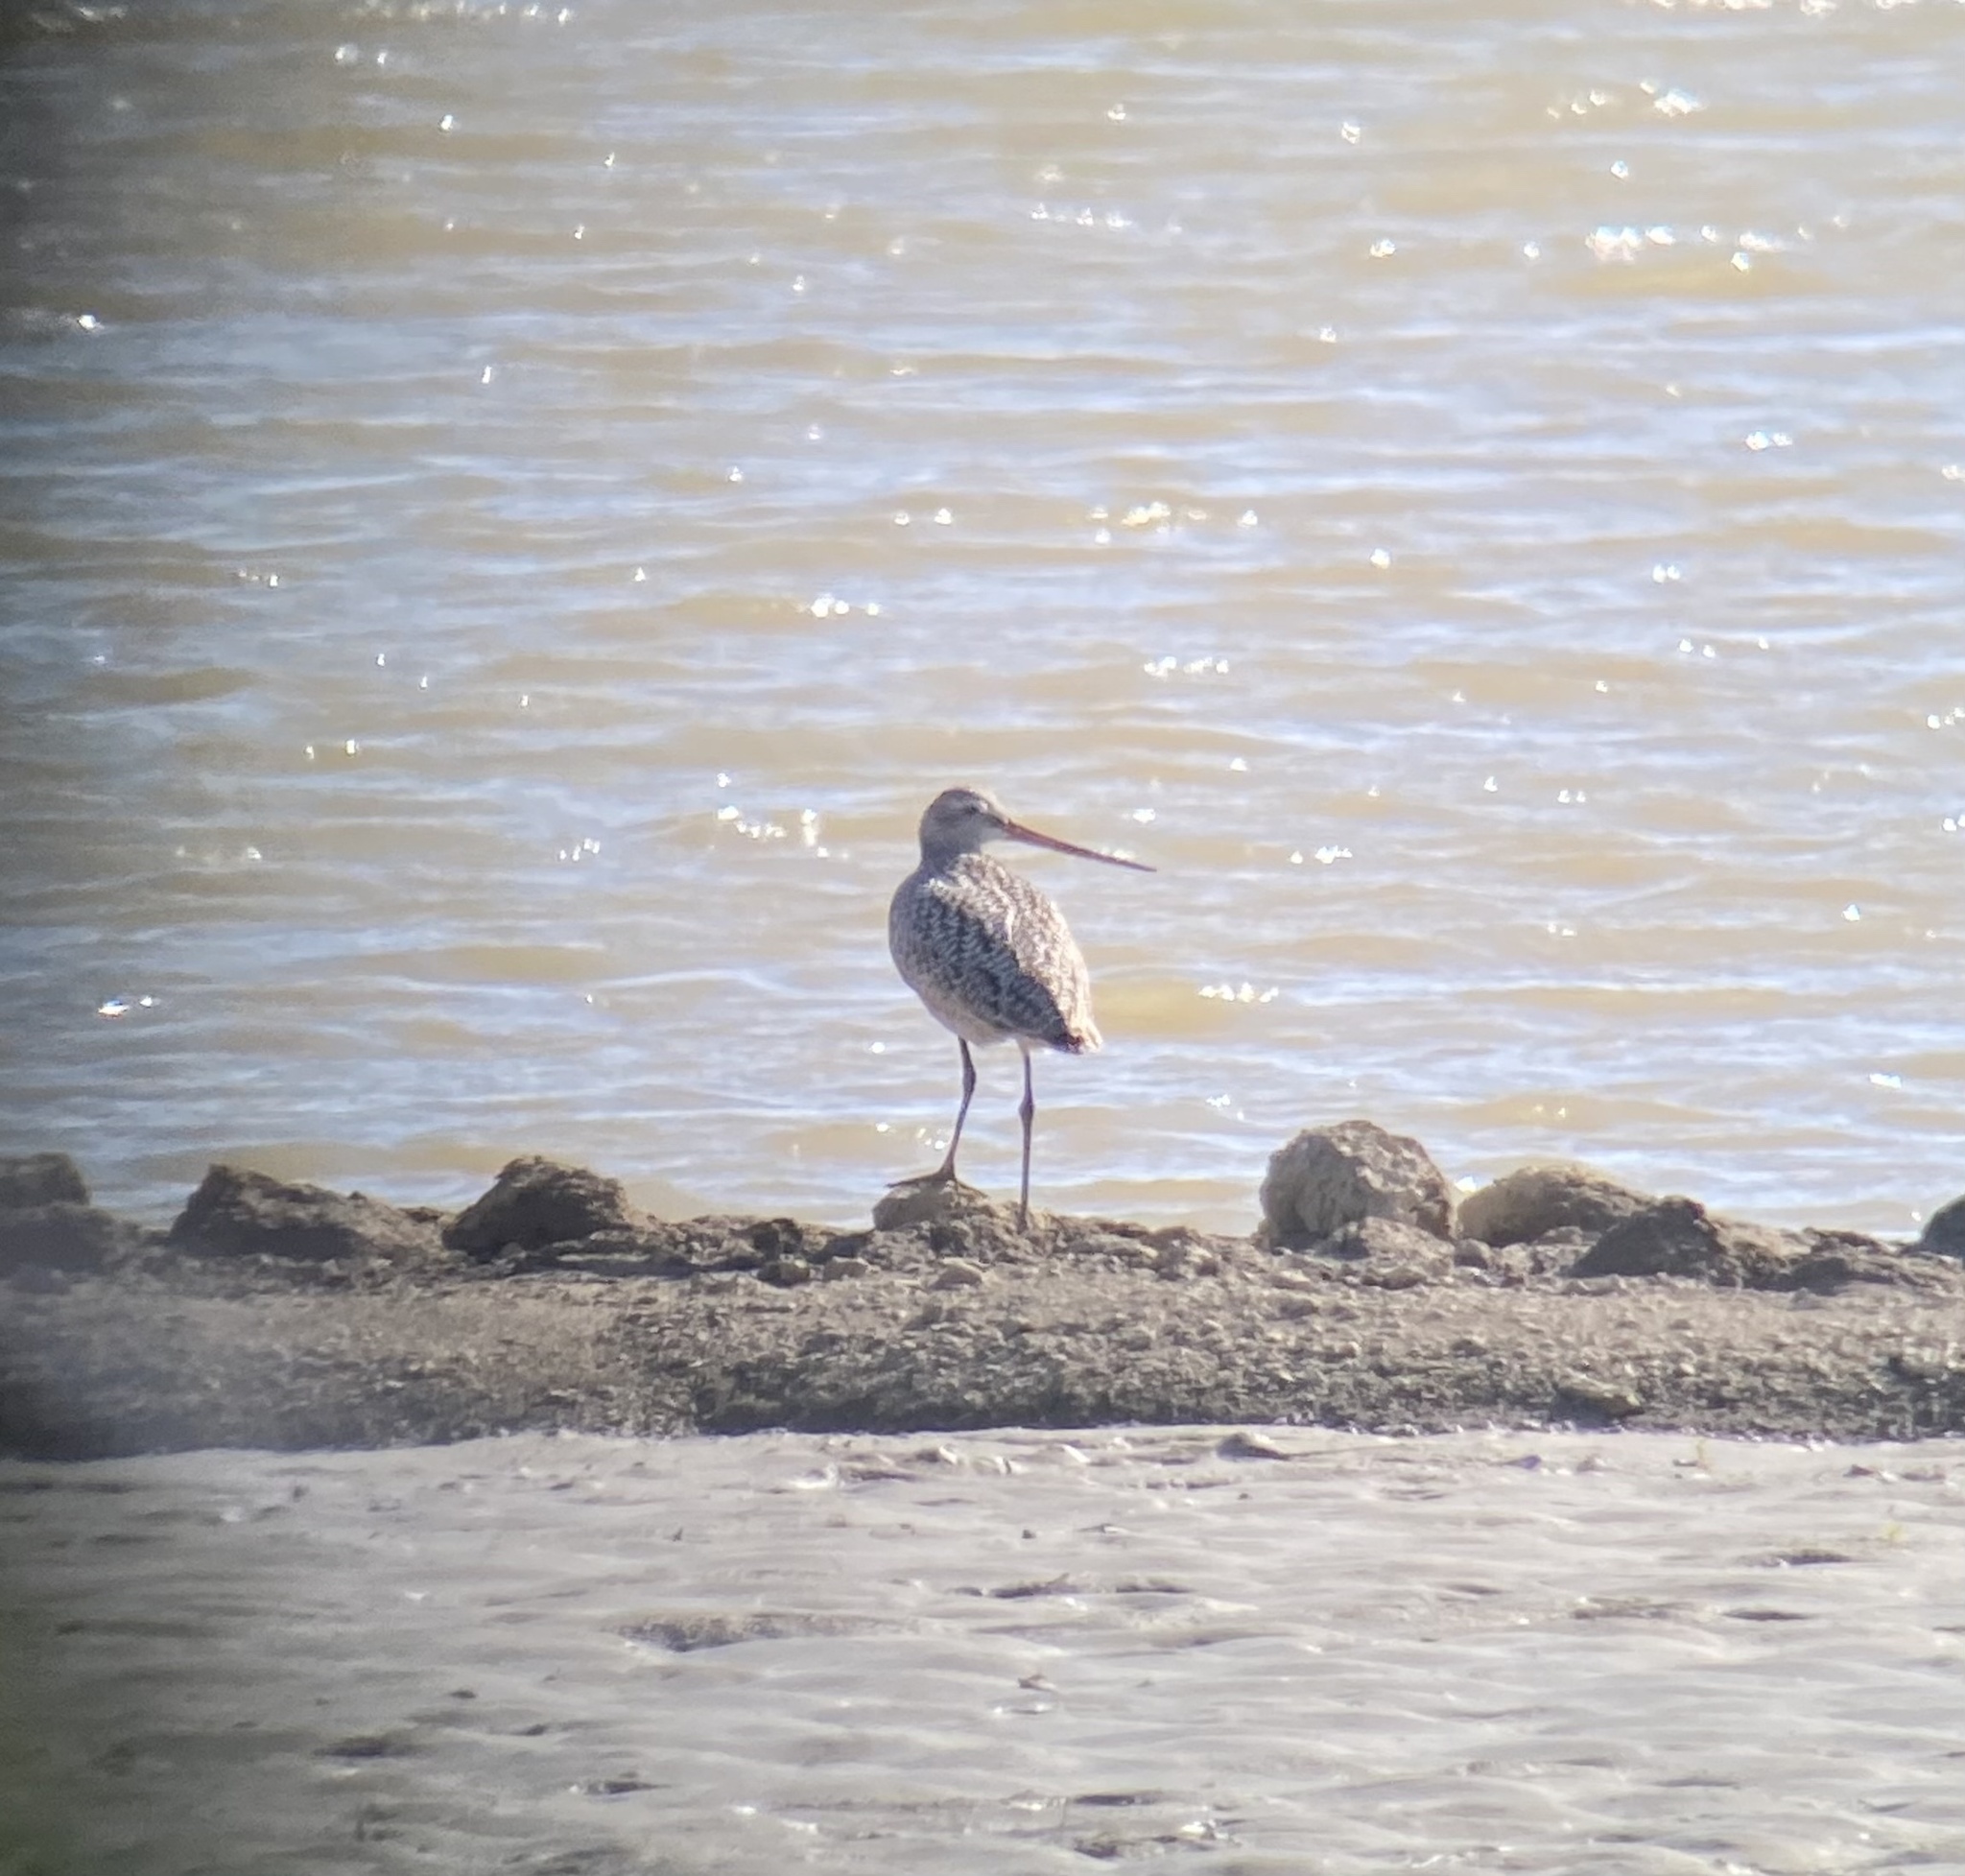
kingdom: Animalia
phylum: Chordata
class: Aves
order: Charadriiformes
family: Scolopacidae
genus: Limosa
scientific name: Limosa fedoa
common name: Marbled godwit
